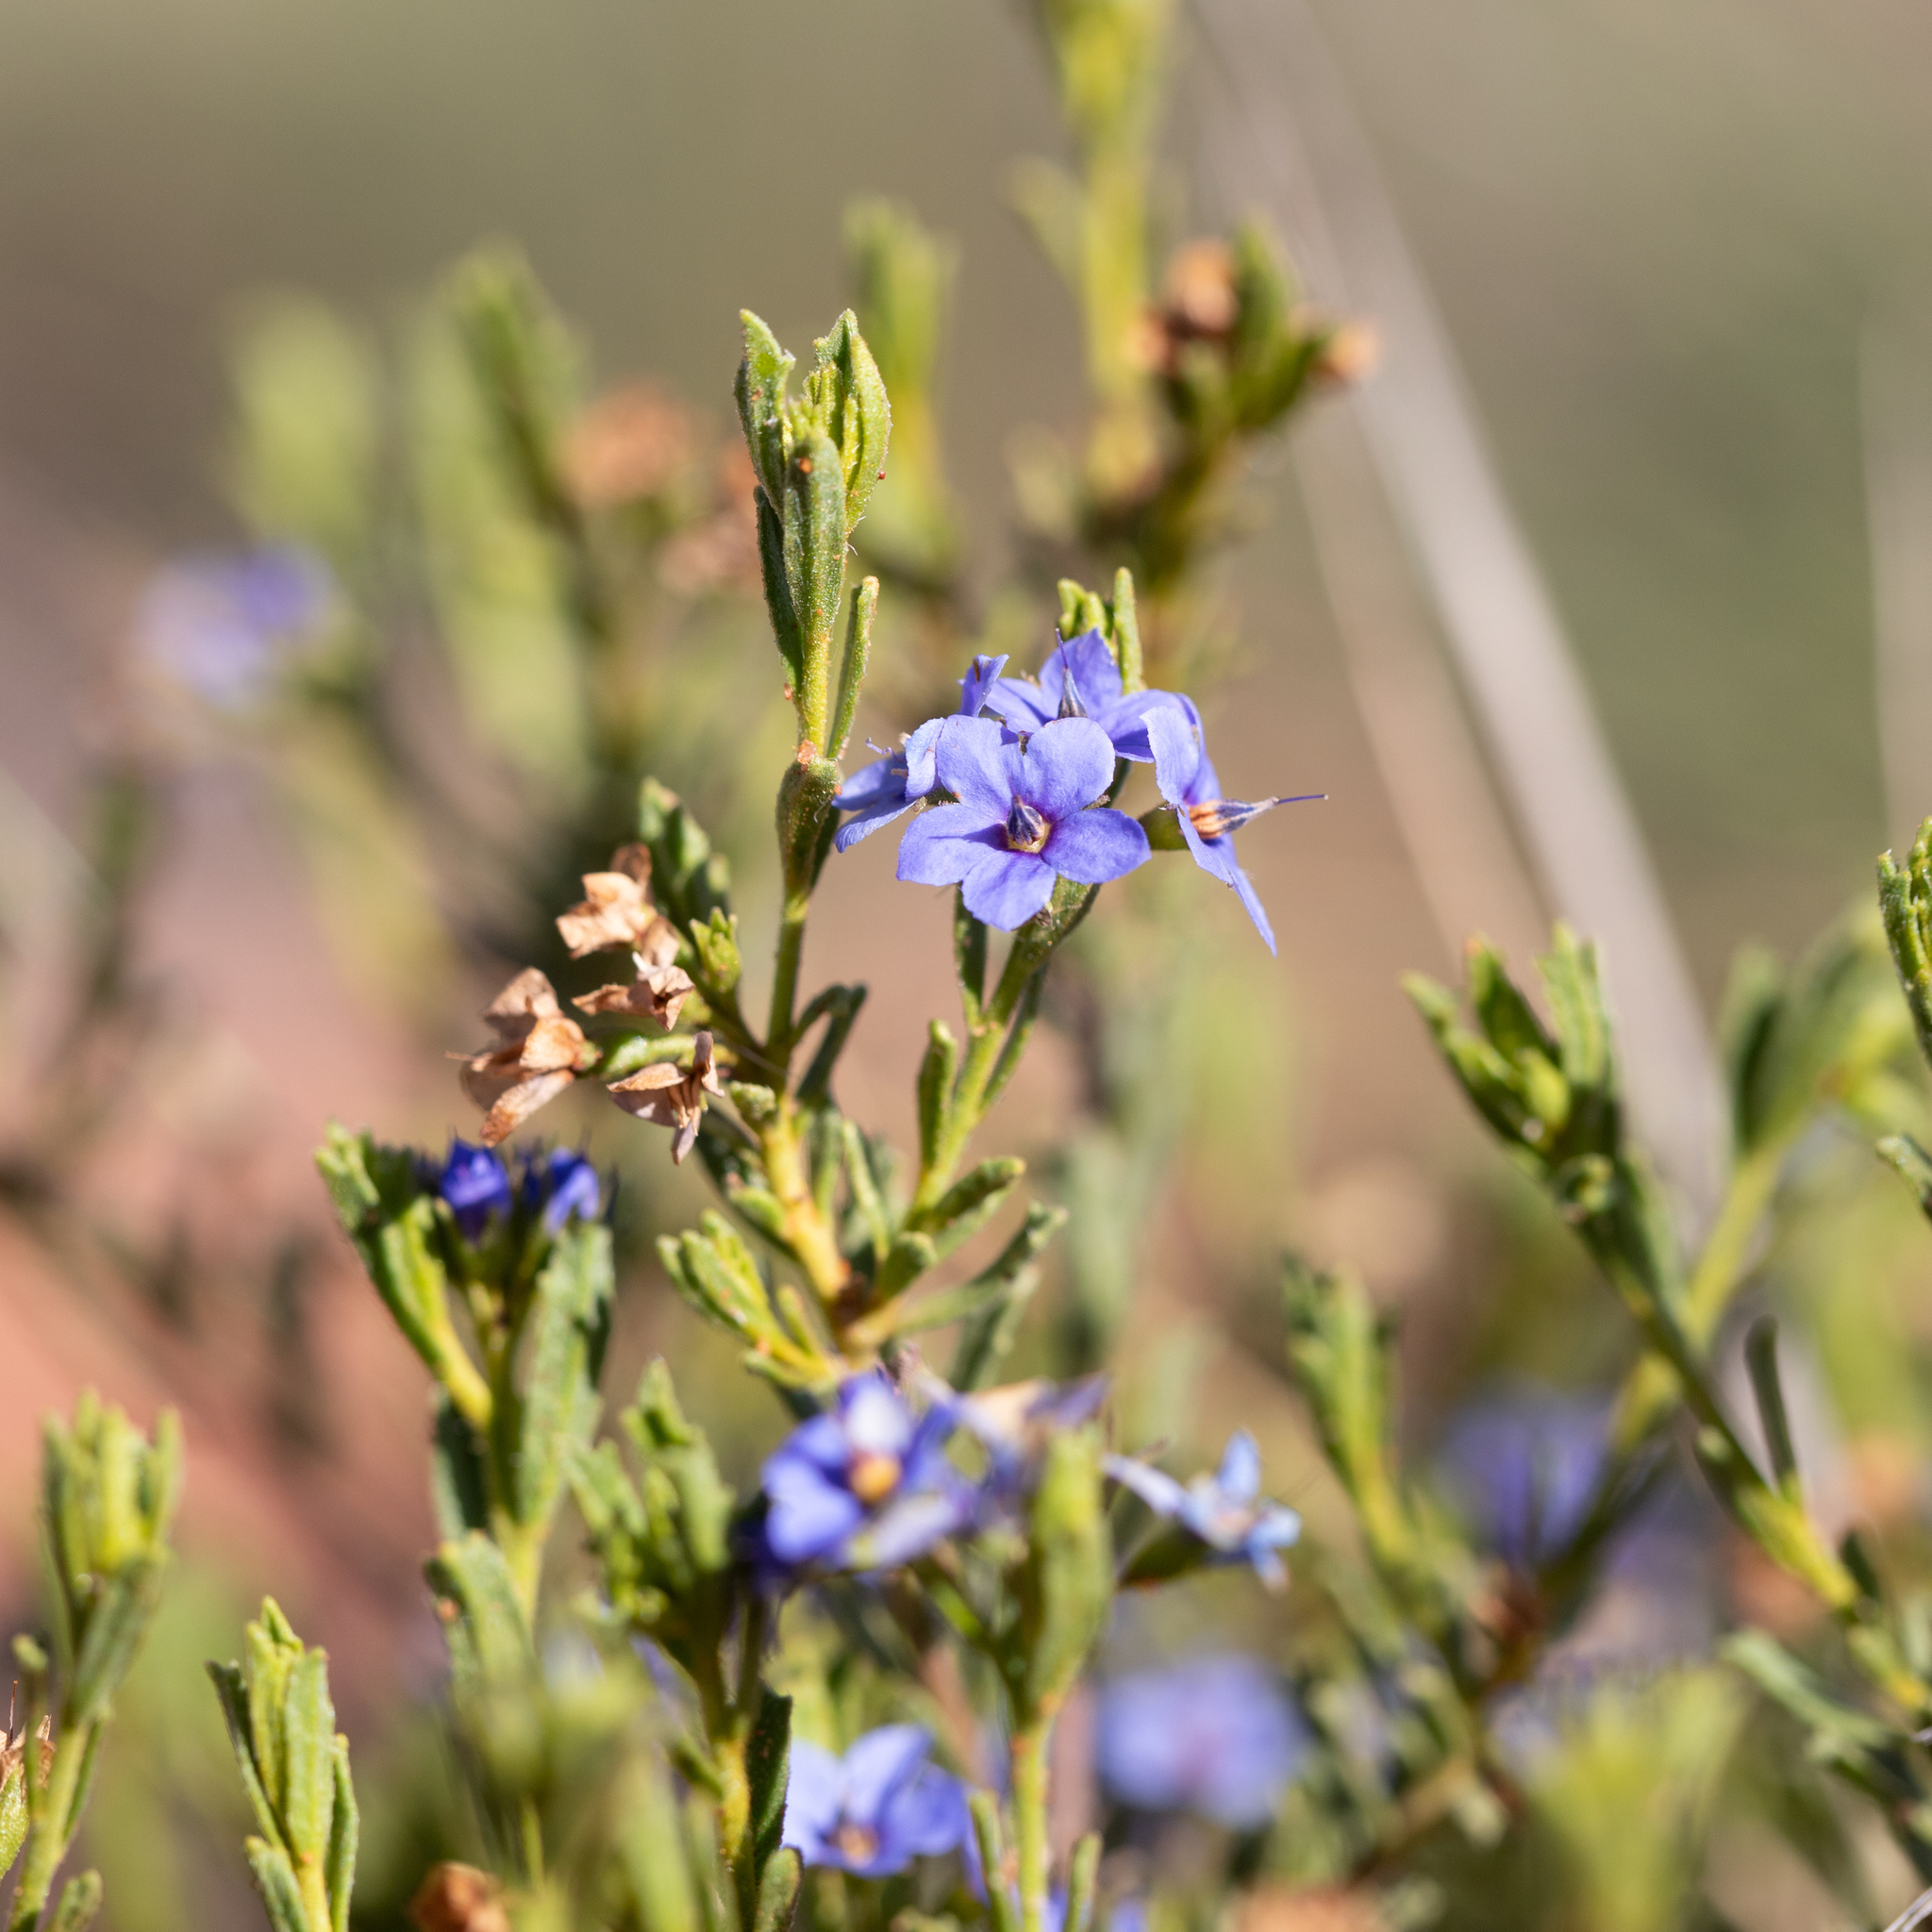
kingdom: Plantae
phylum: Tracheophyta
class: Magnoliopsida
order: Boraginales
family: Ehretiaceae
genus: Halgania
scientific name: Halgania cyanea
